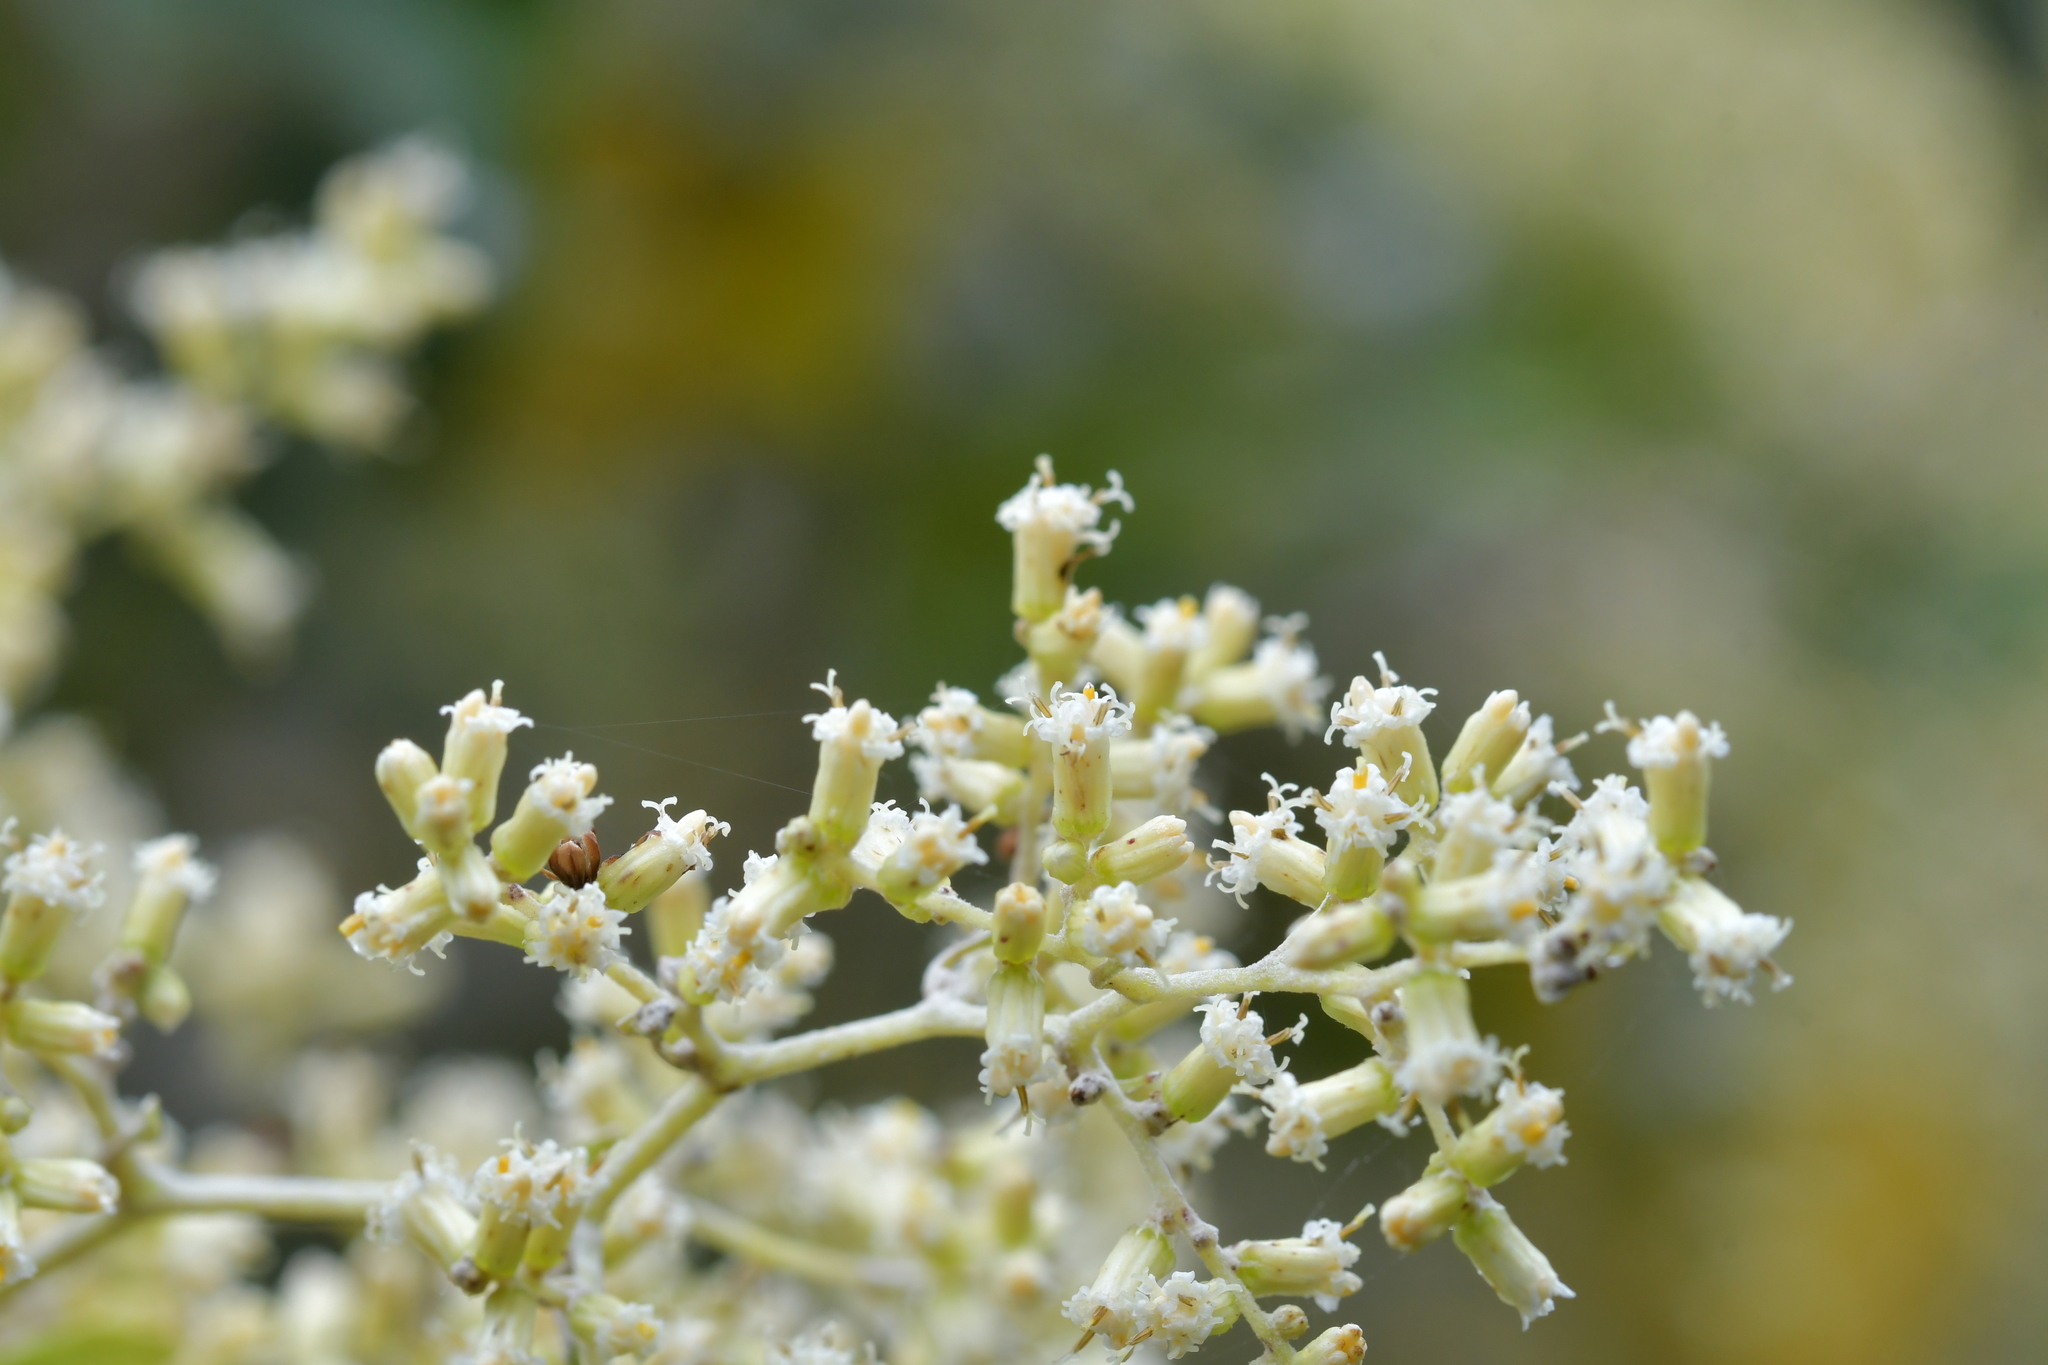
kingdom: Plantae
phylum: Tracheophyta
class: Magnoliopsida
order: Asterales
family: Asteraceae
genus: Brachyglottis
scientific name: Brachyglottis repanda
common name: Hedge ragwort
